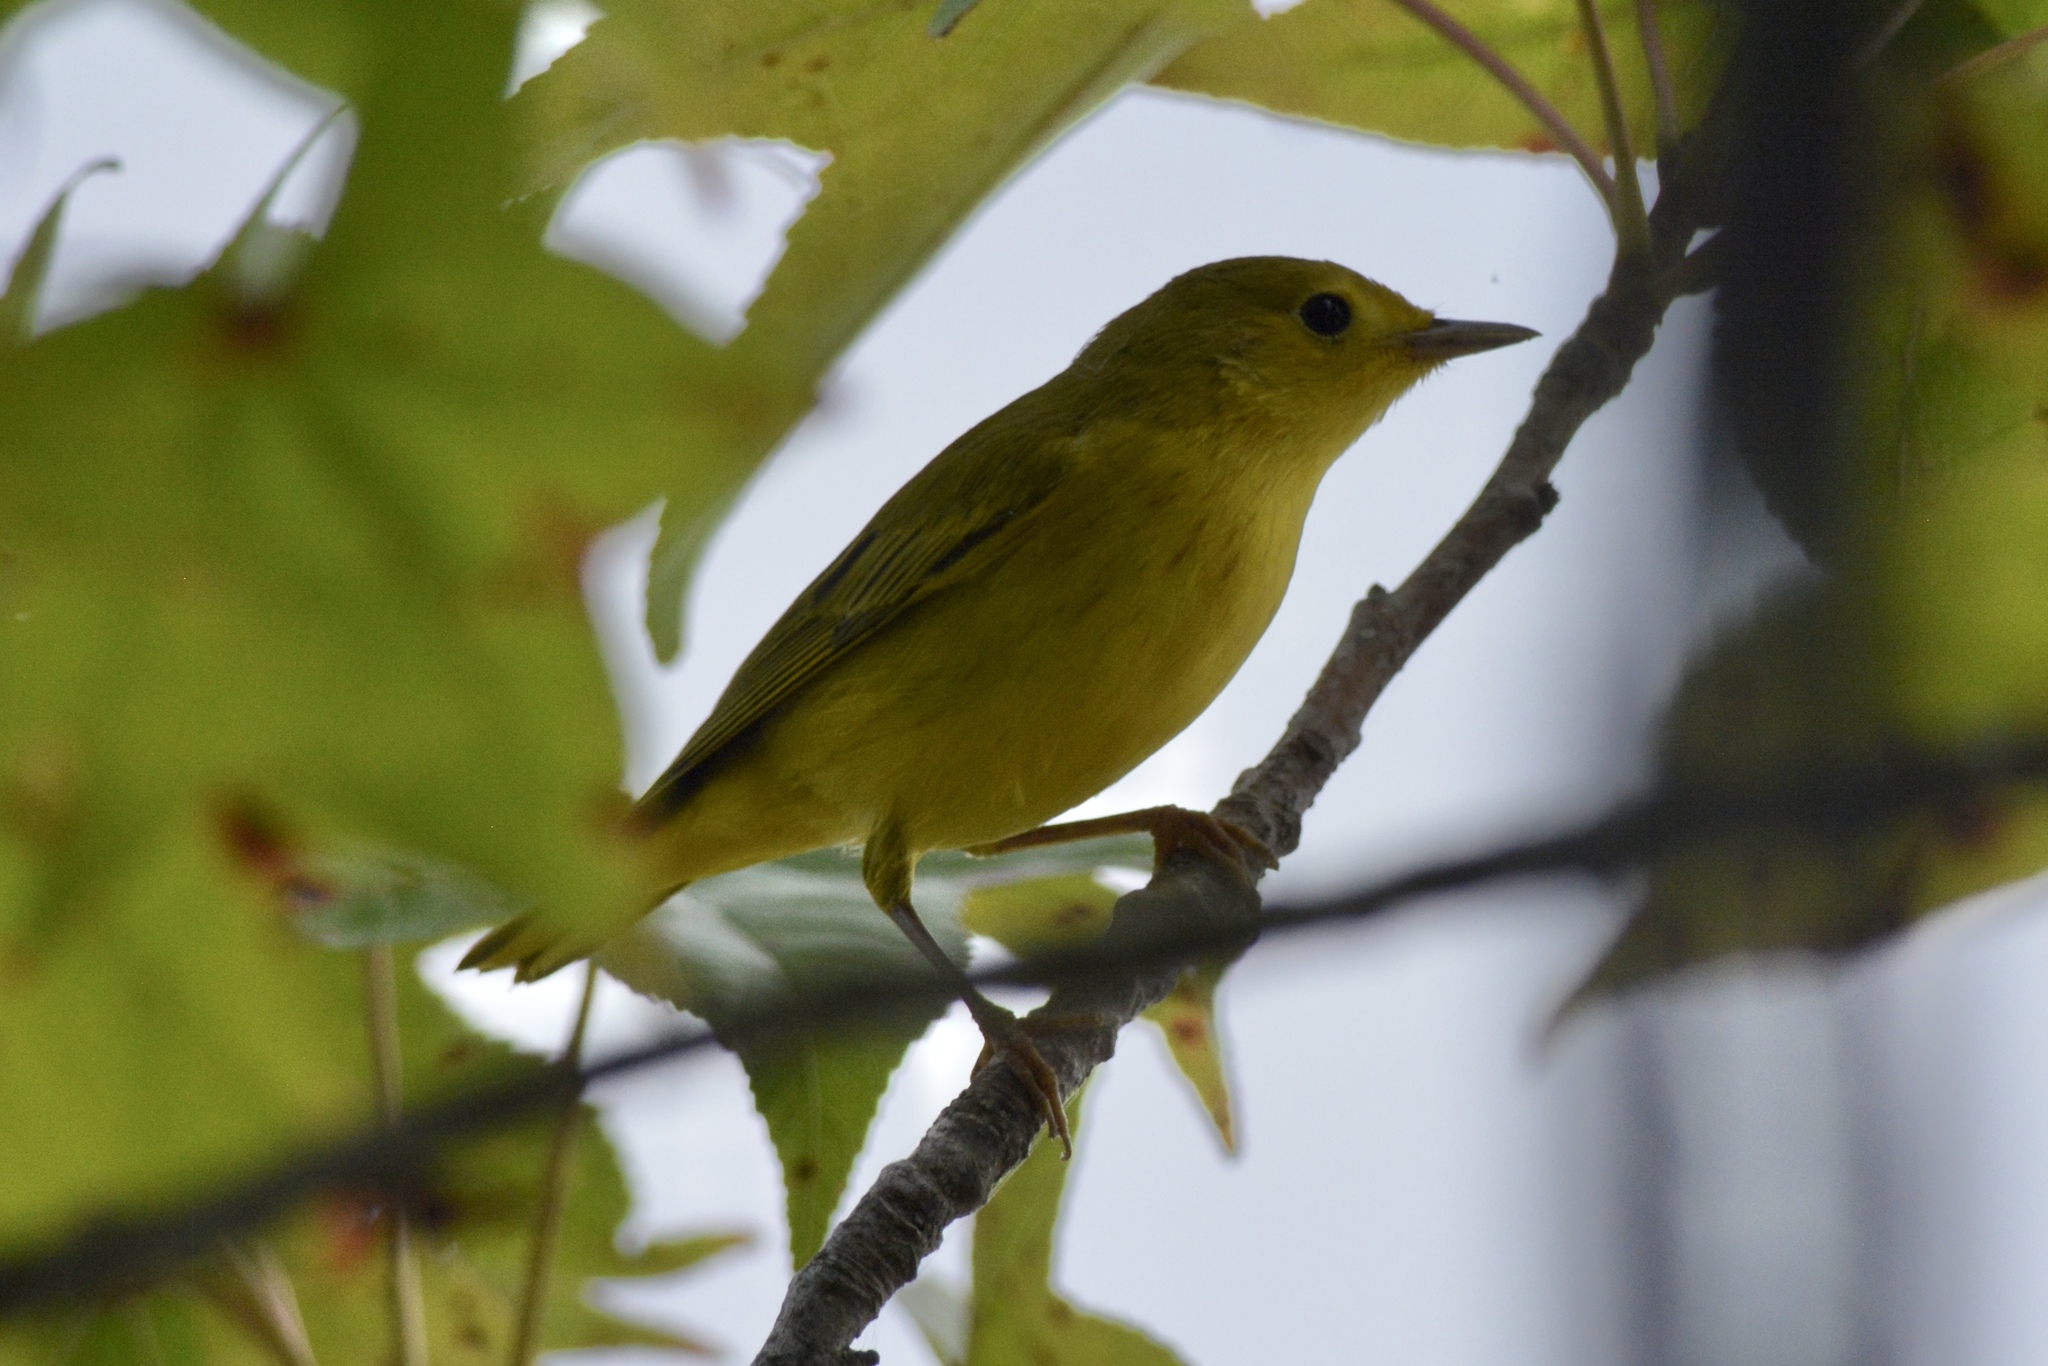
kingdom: Animalia
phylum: Chordata
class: Aves
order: Passeriformes
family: Parulidae
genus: Setophaga
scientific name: Setophaga petechia
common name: Yellow warbler
